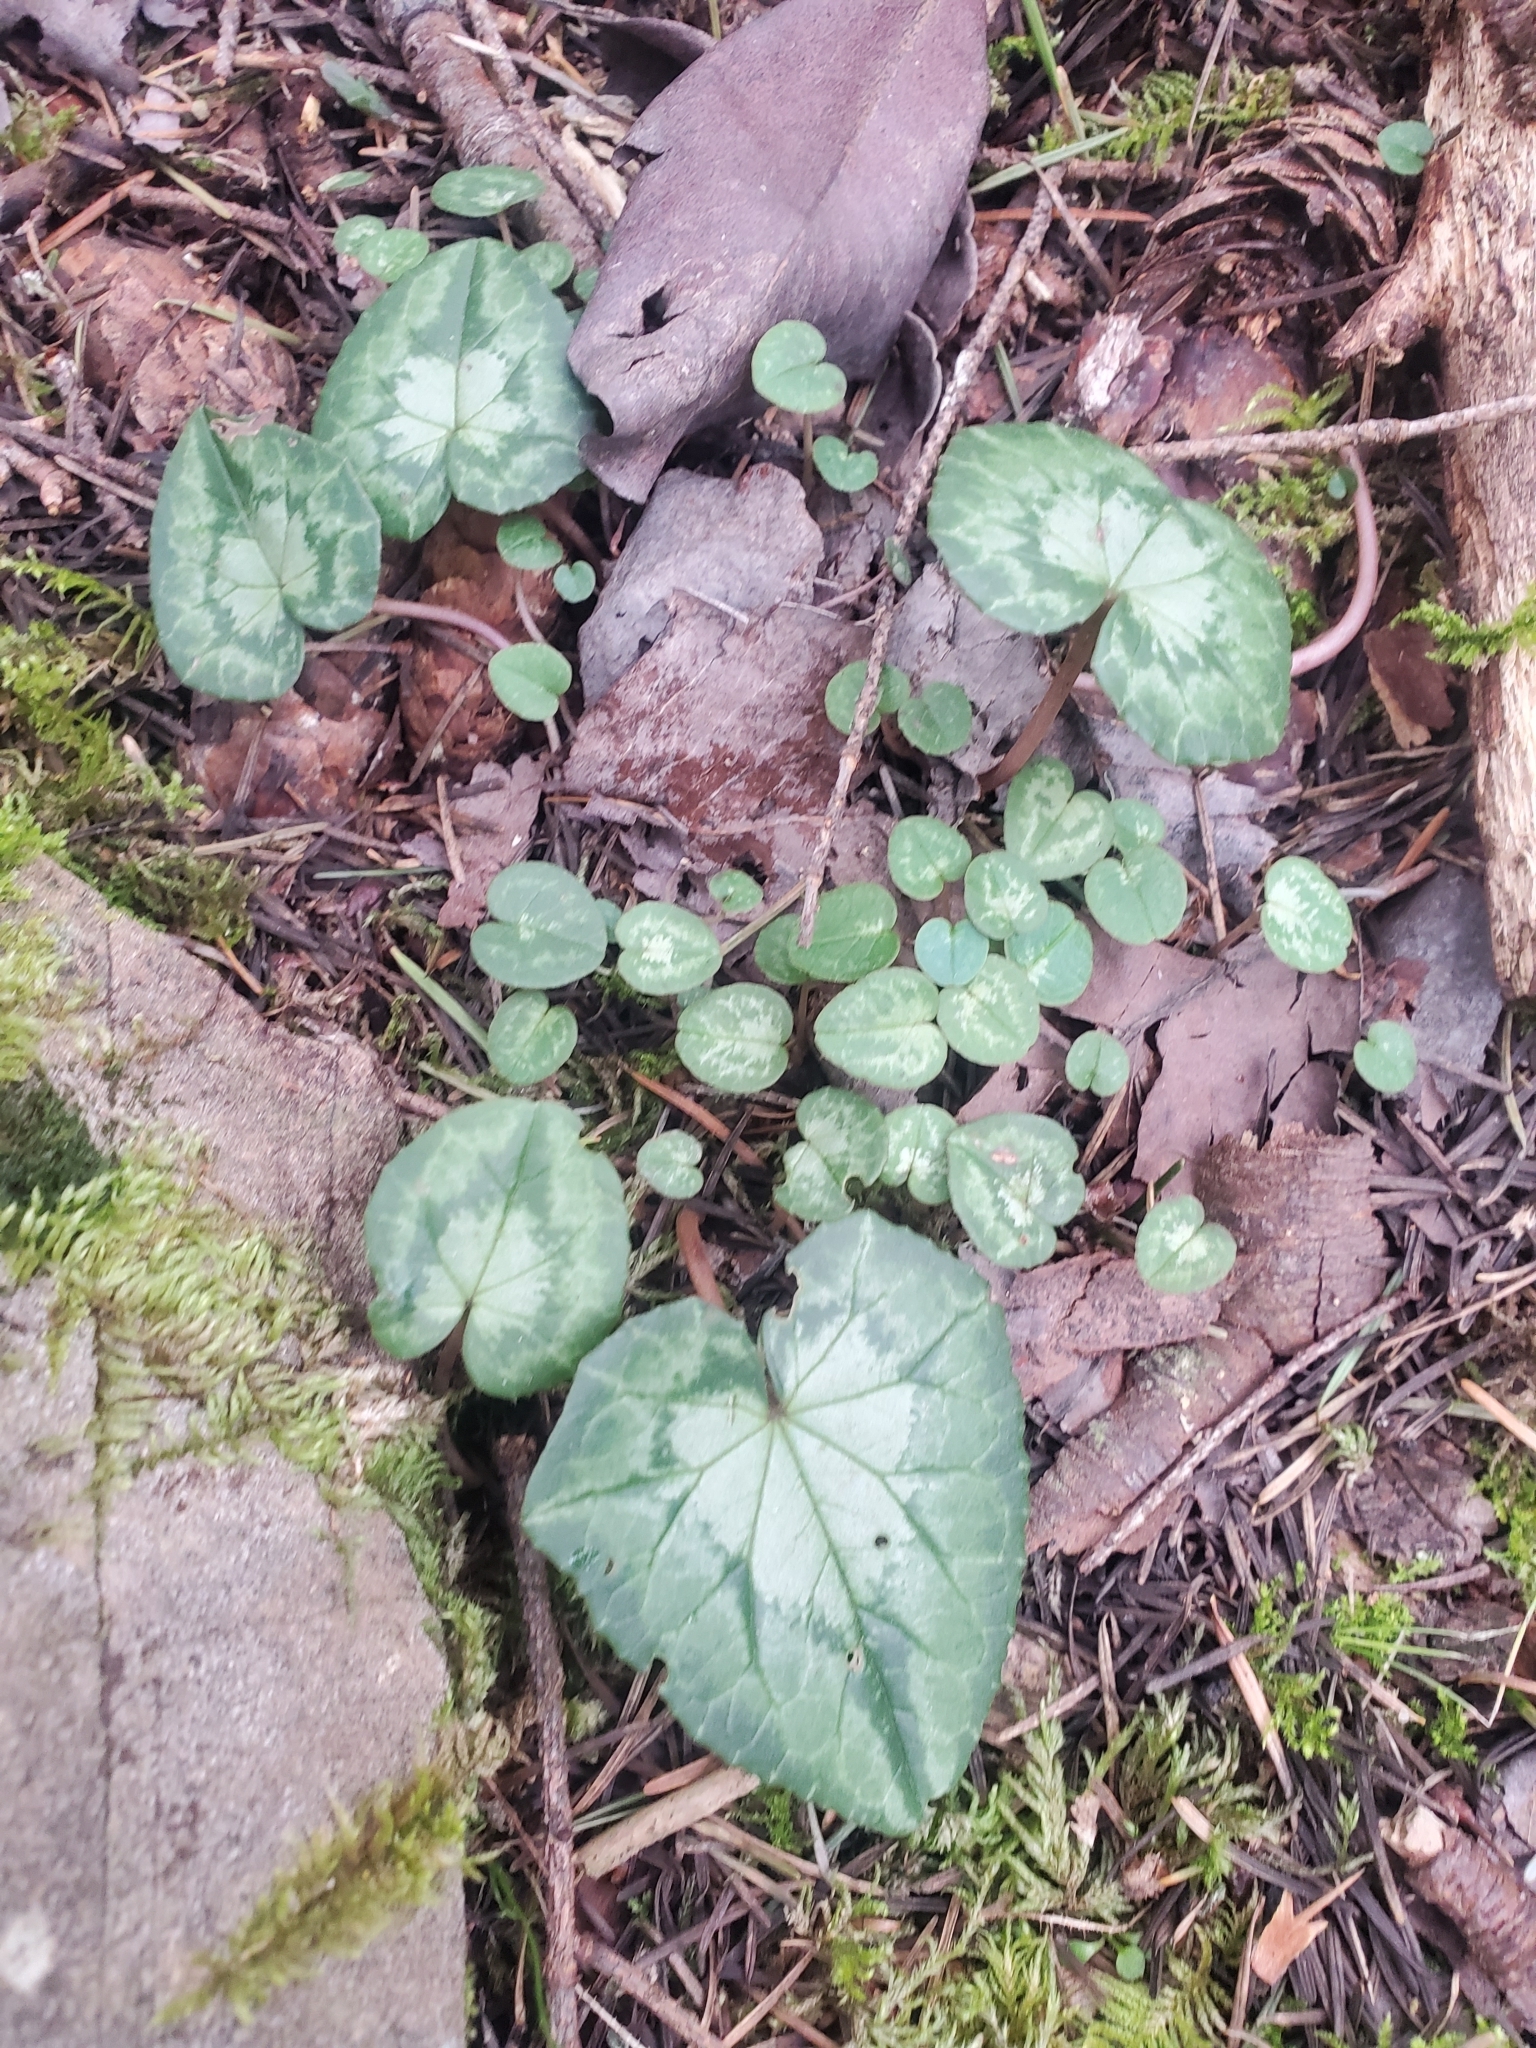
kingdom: Plantae
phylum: Tracheophyta
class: Magnoliopsida
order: Ericales
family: Primulaceae
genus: Cyclamen
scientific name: Cyclamen hederifolium
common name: Sowbread
